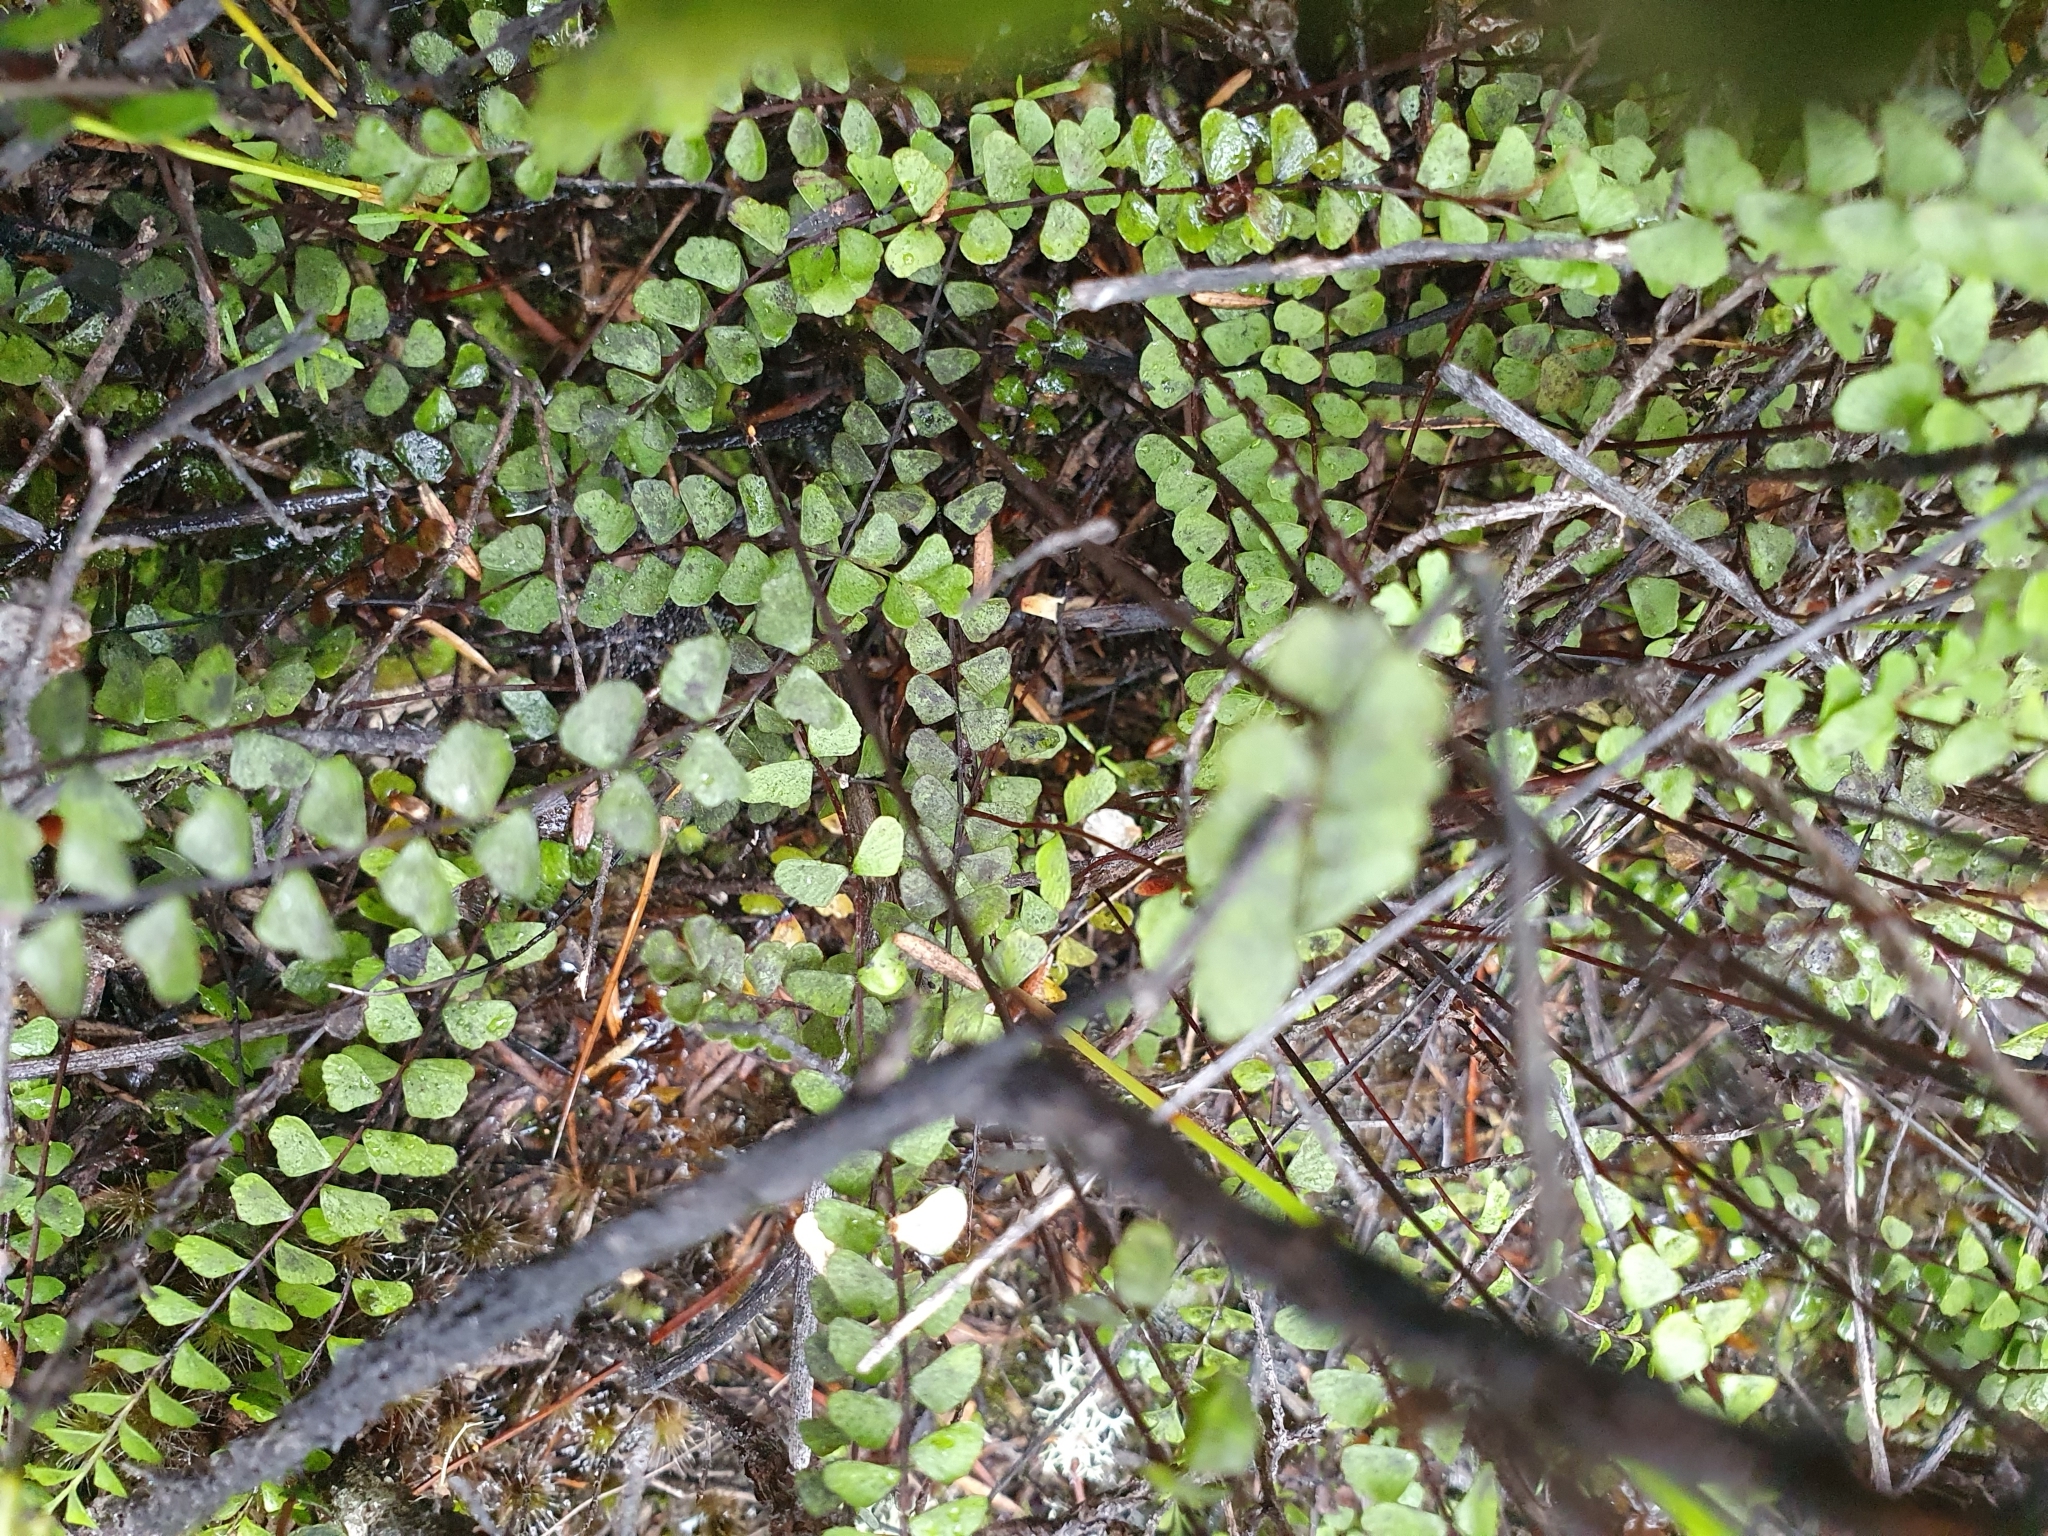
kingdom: Plantae
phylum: Tracheophyta
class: Polypodiopsida
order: Polypodiales
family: Lindsaeaceae
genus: Lindsaea
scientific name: Lindsaea linearis
